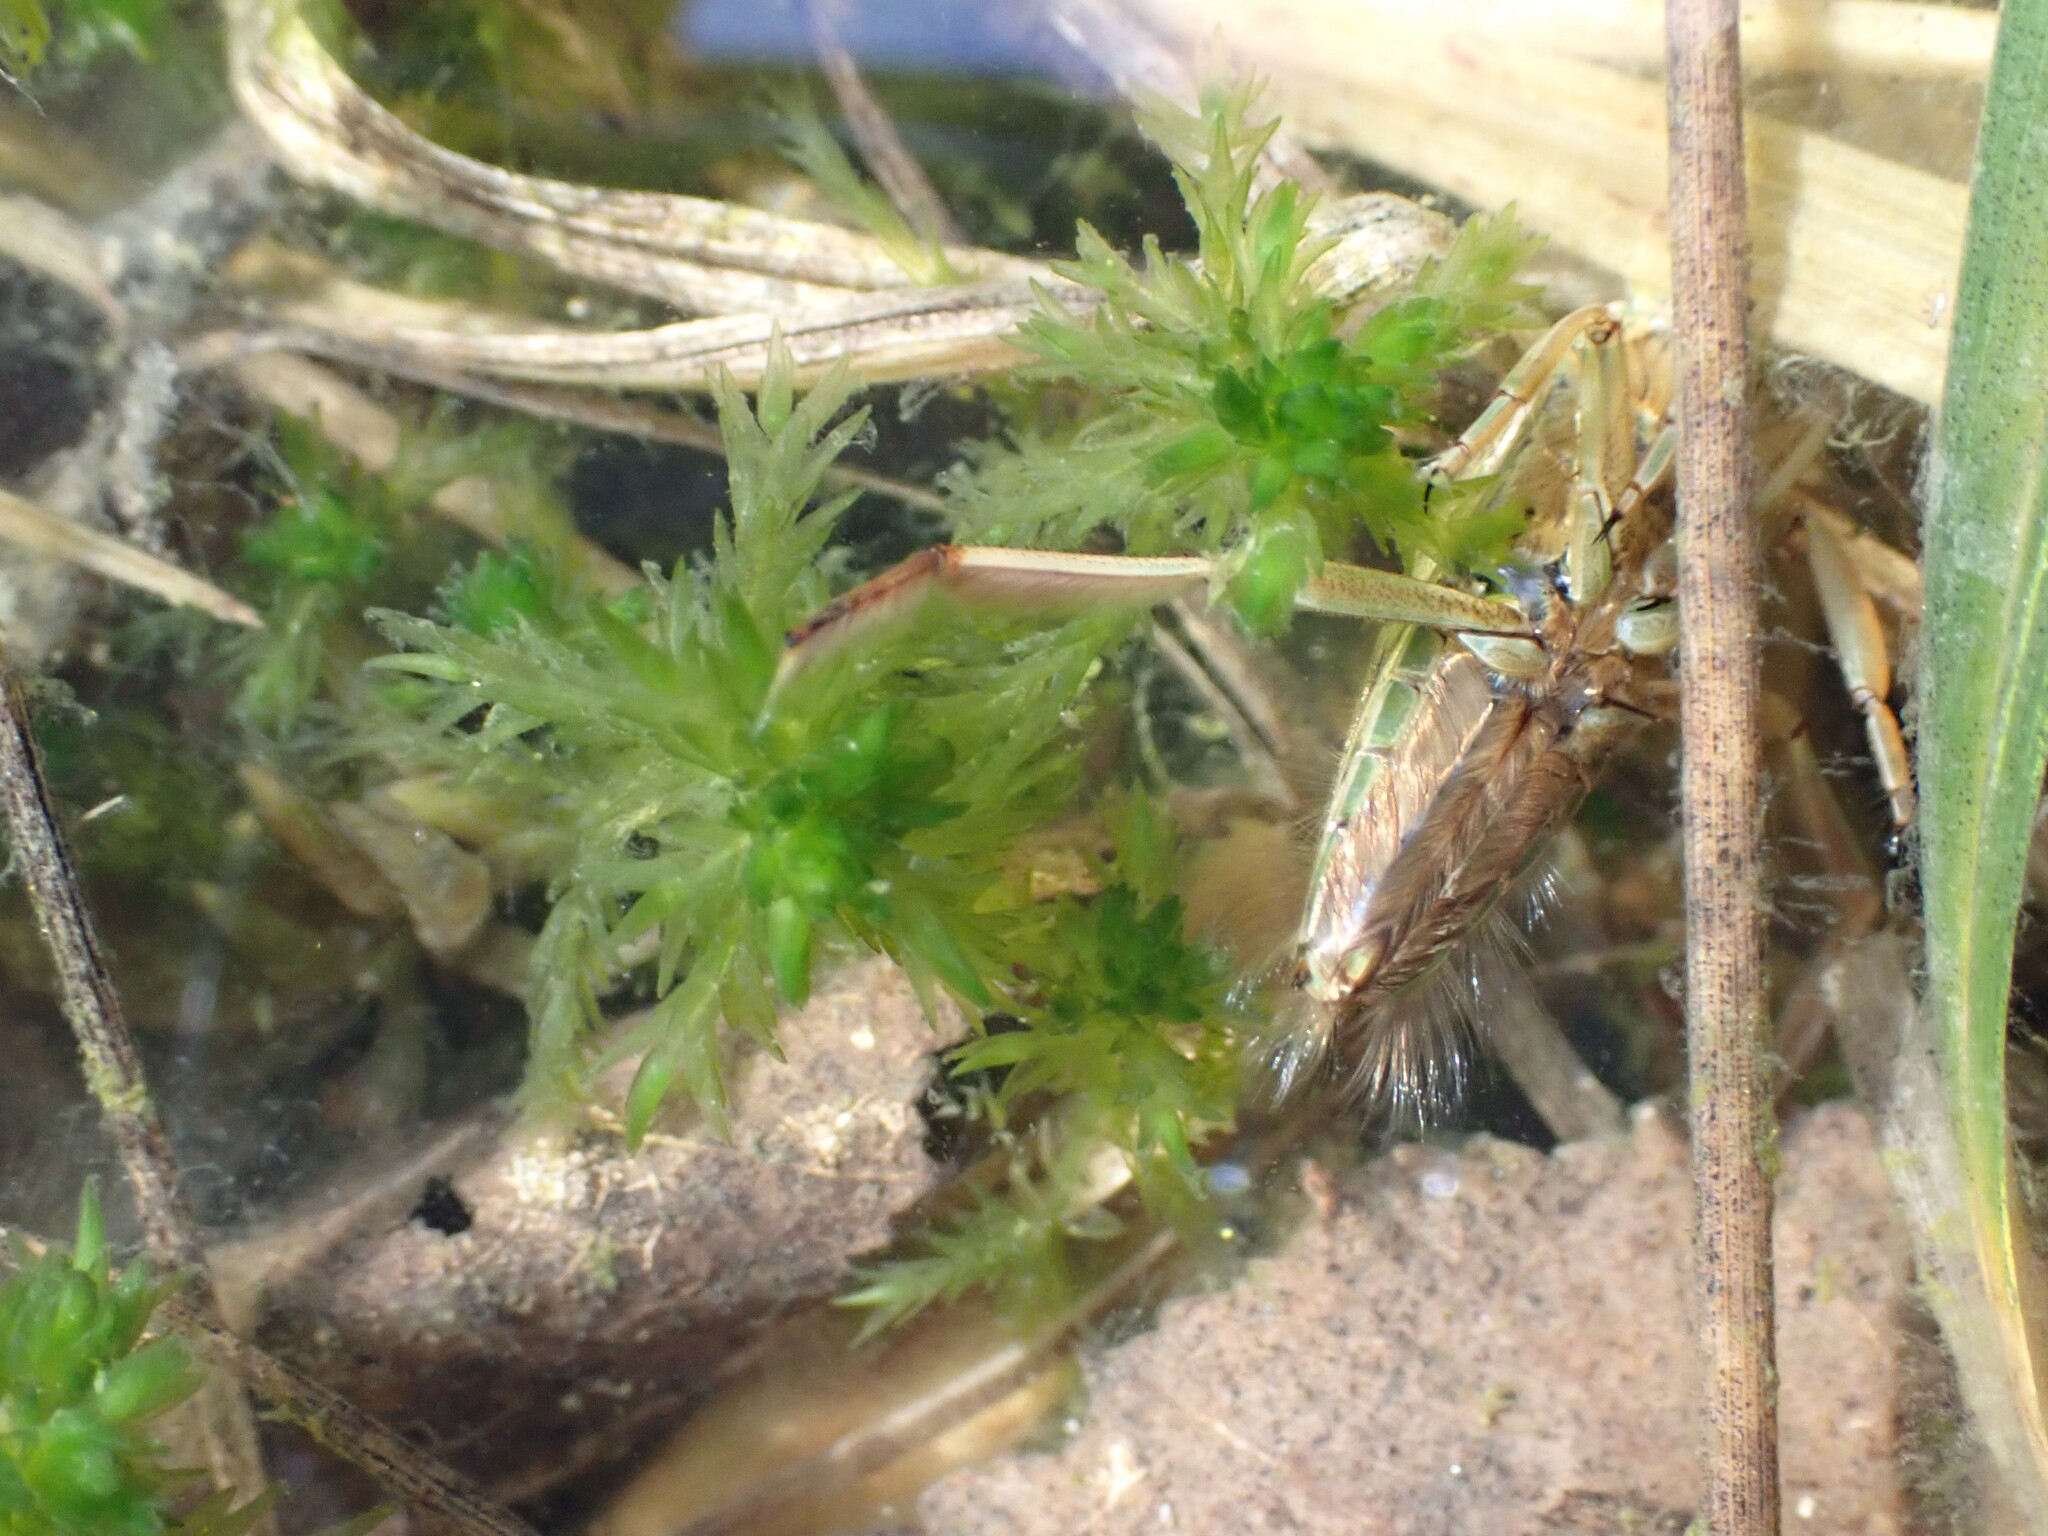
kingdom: Animalia
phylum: Arthropoda
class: Insecta
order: Hemiptera
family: Notonectidae
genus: Notonecta
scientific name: Notonecta
